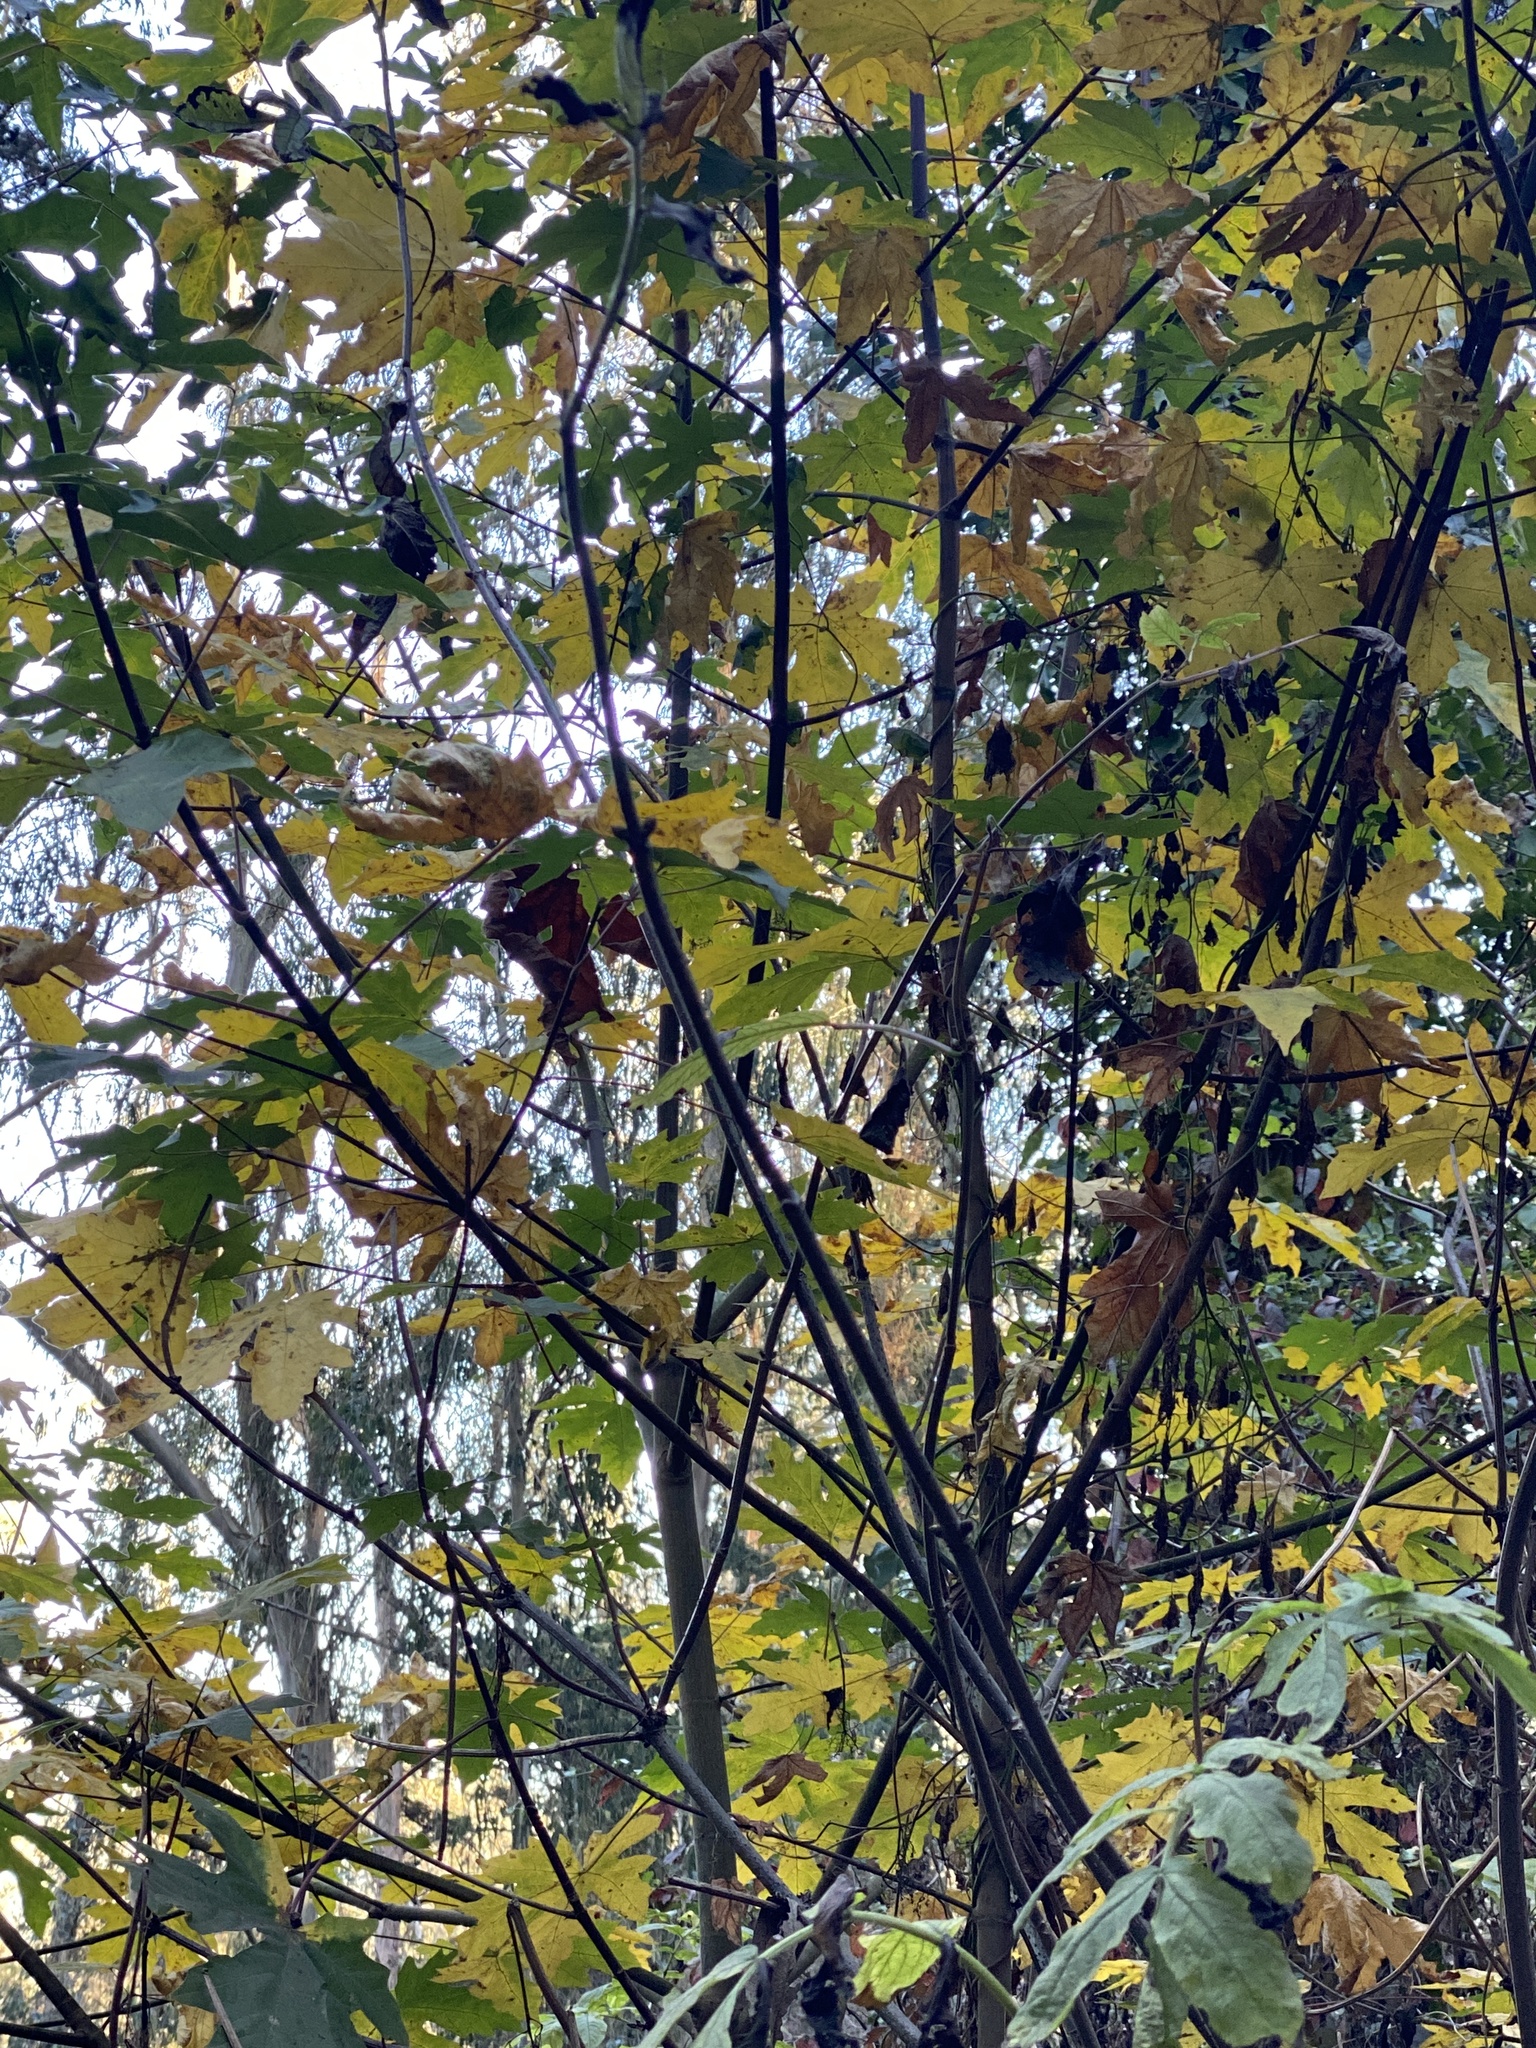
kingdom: Plantae
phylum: Tracheophyta
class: Magnoliopsida
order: Sapindales
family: Sapindaceae
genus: Acer
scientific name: Acer macrophyllum
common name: Oregon maple
